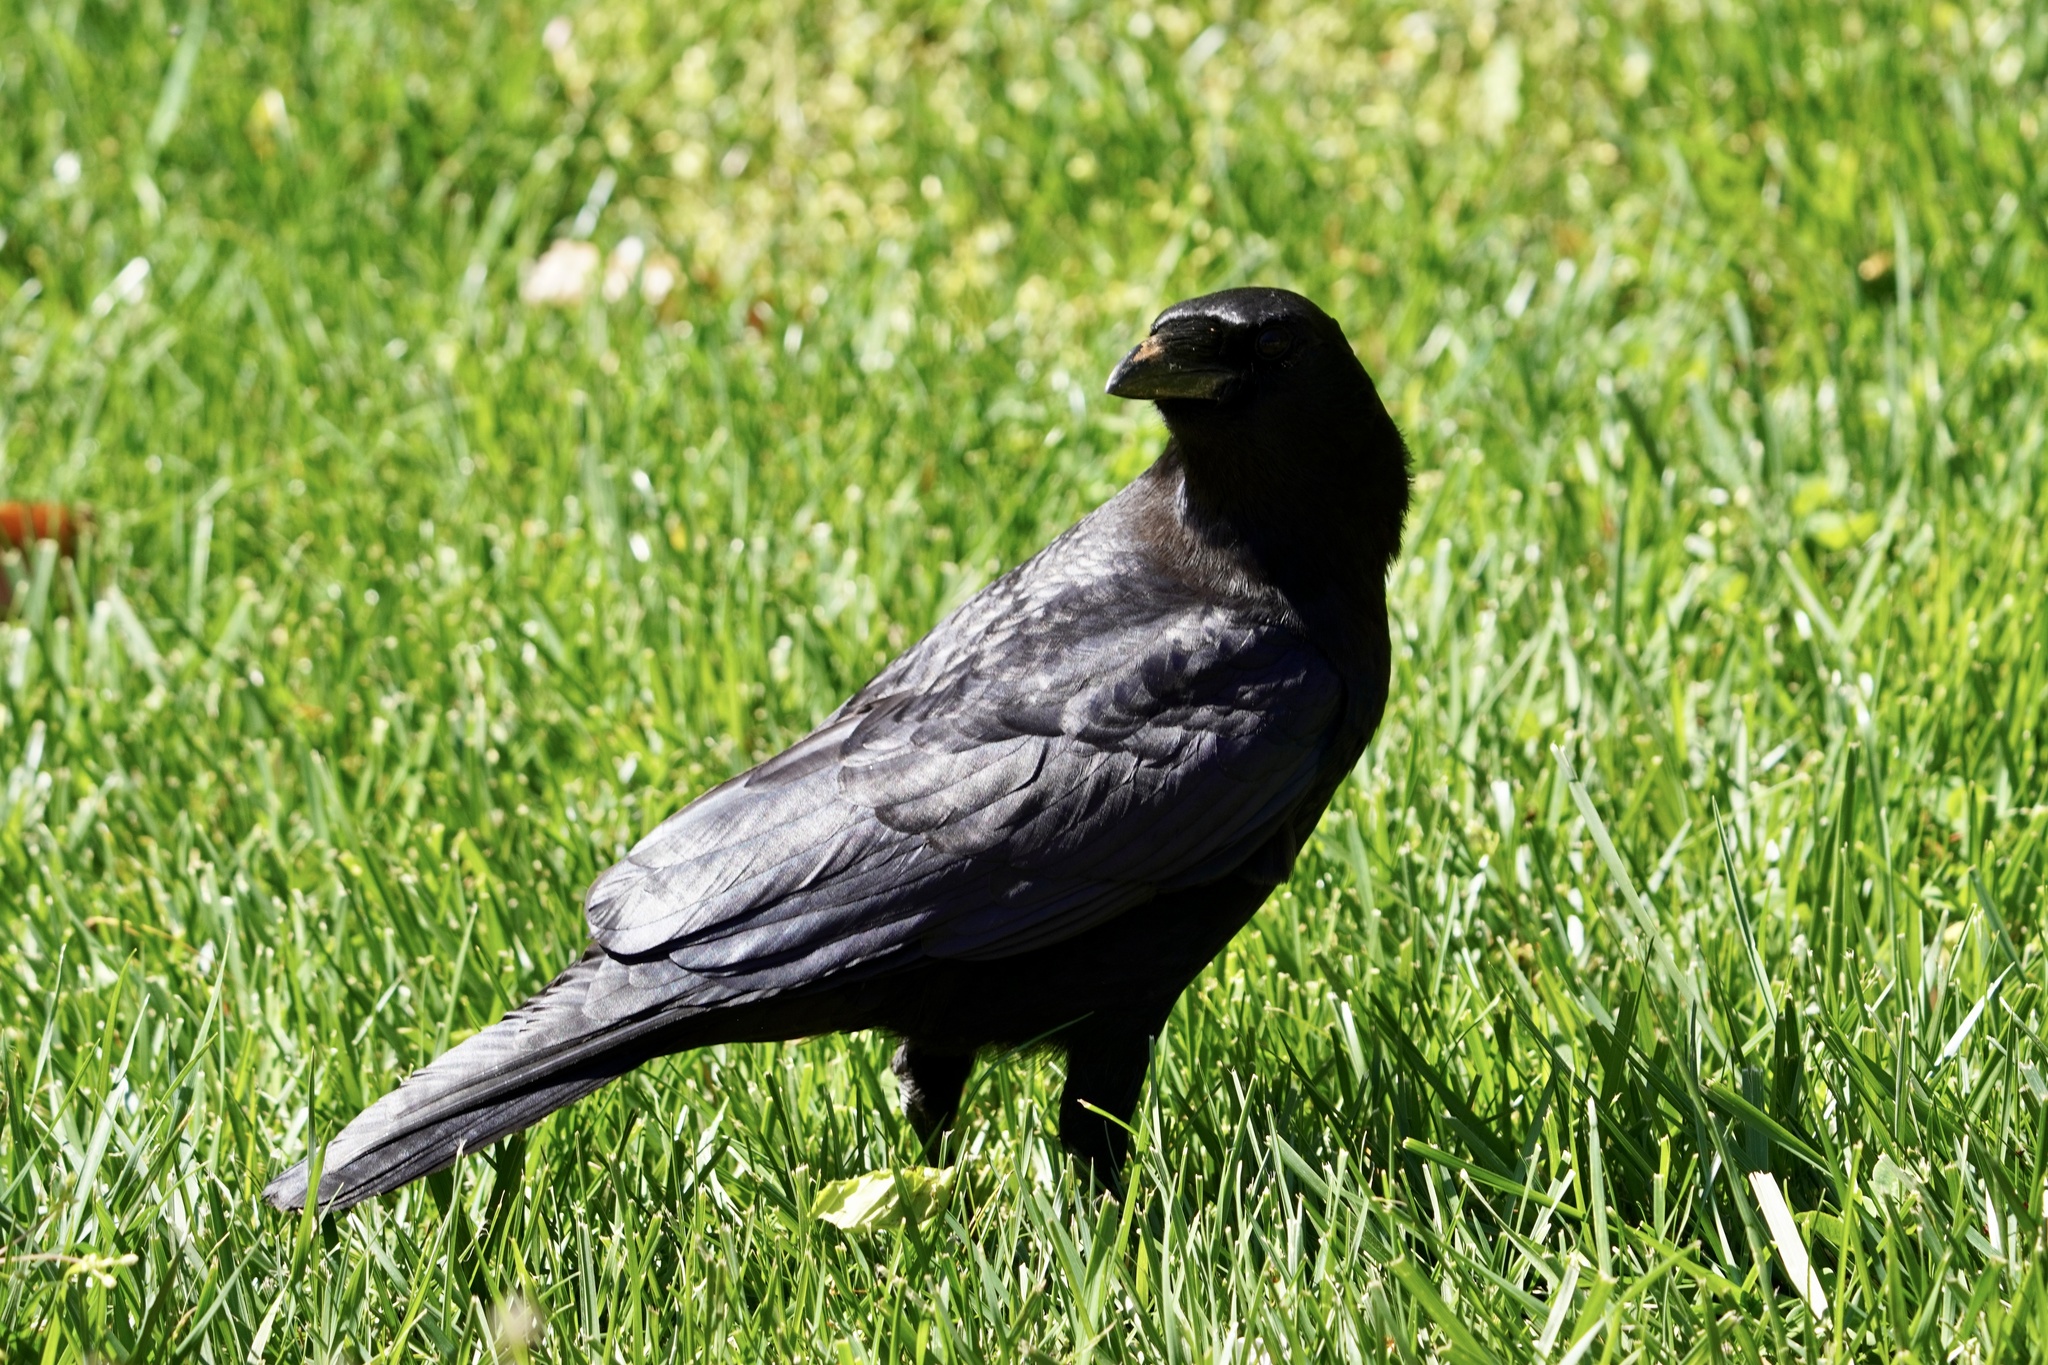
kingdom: Animalia
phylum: Chordata
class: Aves
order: Passeriformes
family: Corvidae
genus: Corvus
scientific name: Corvus brachyrhynchos
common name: American crow
